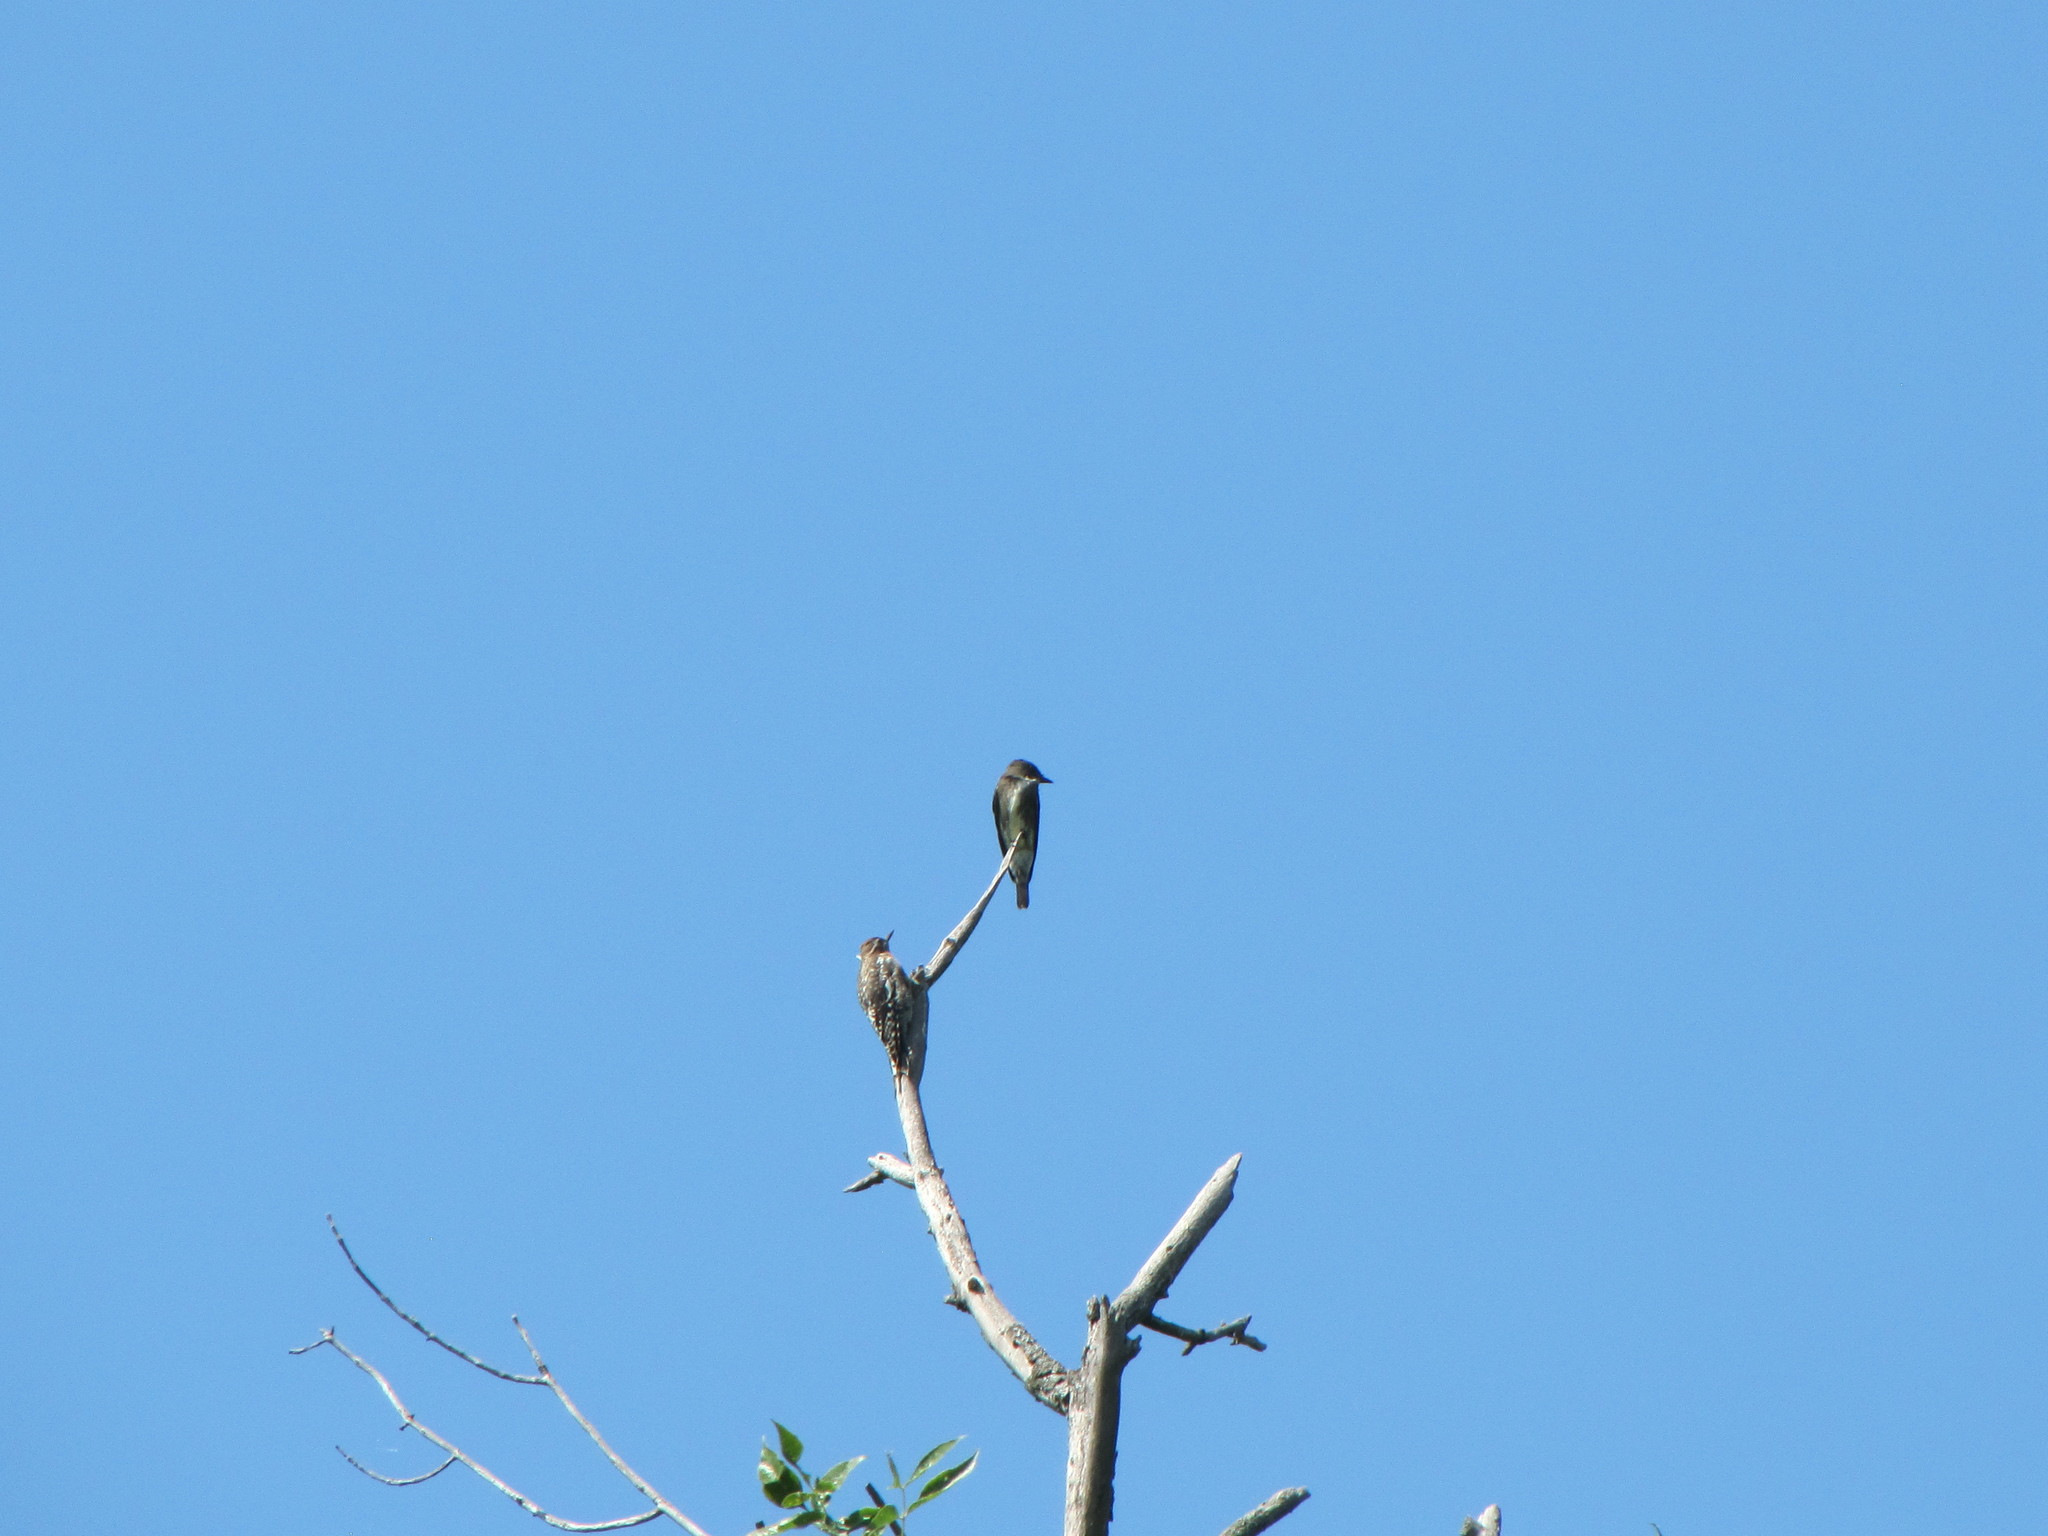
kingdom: Animalia
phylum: Chordata
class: Aves
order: Piciformes
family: Picidae
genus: Sphyrapicus
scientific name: Sphyrapicus varius
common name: Yellow-bellied sapsucker
